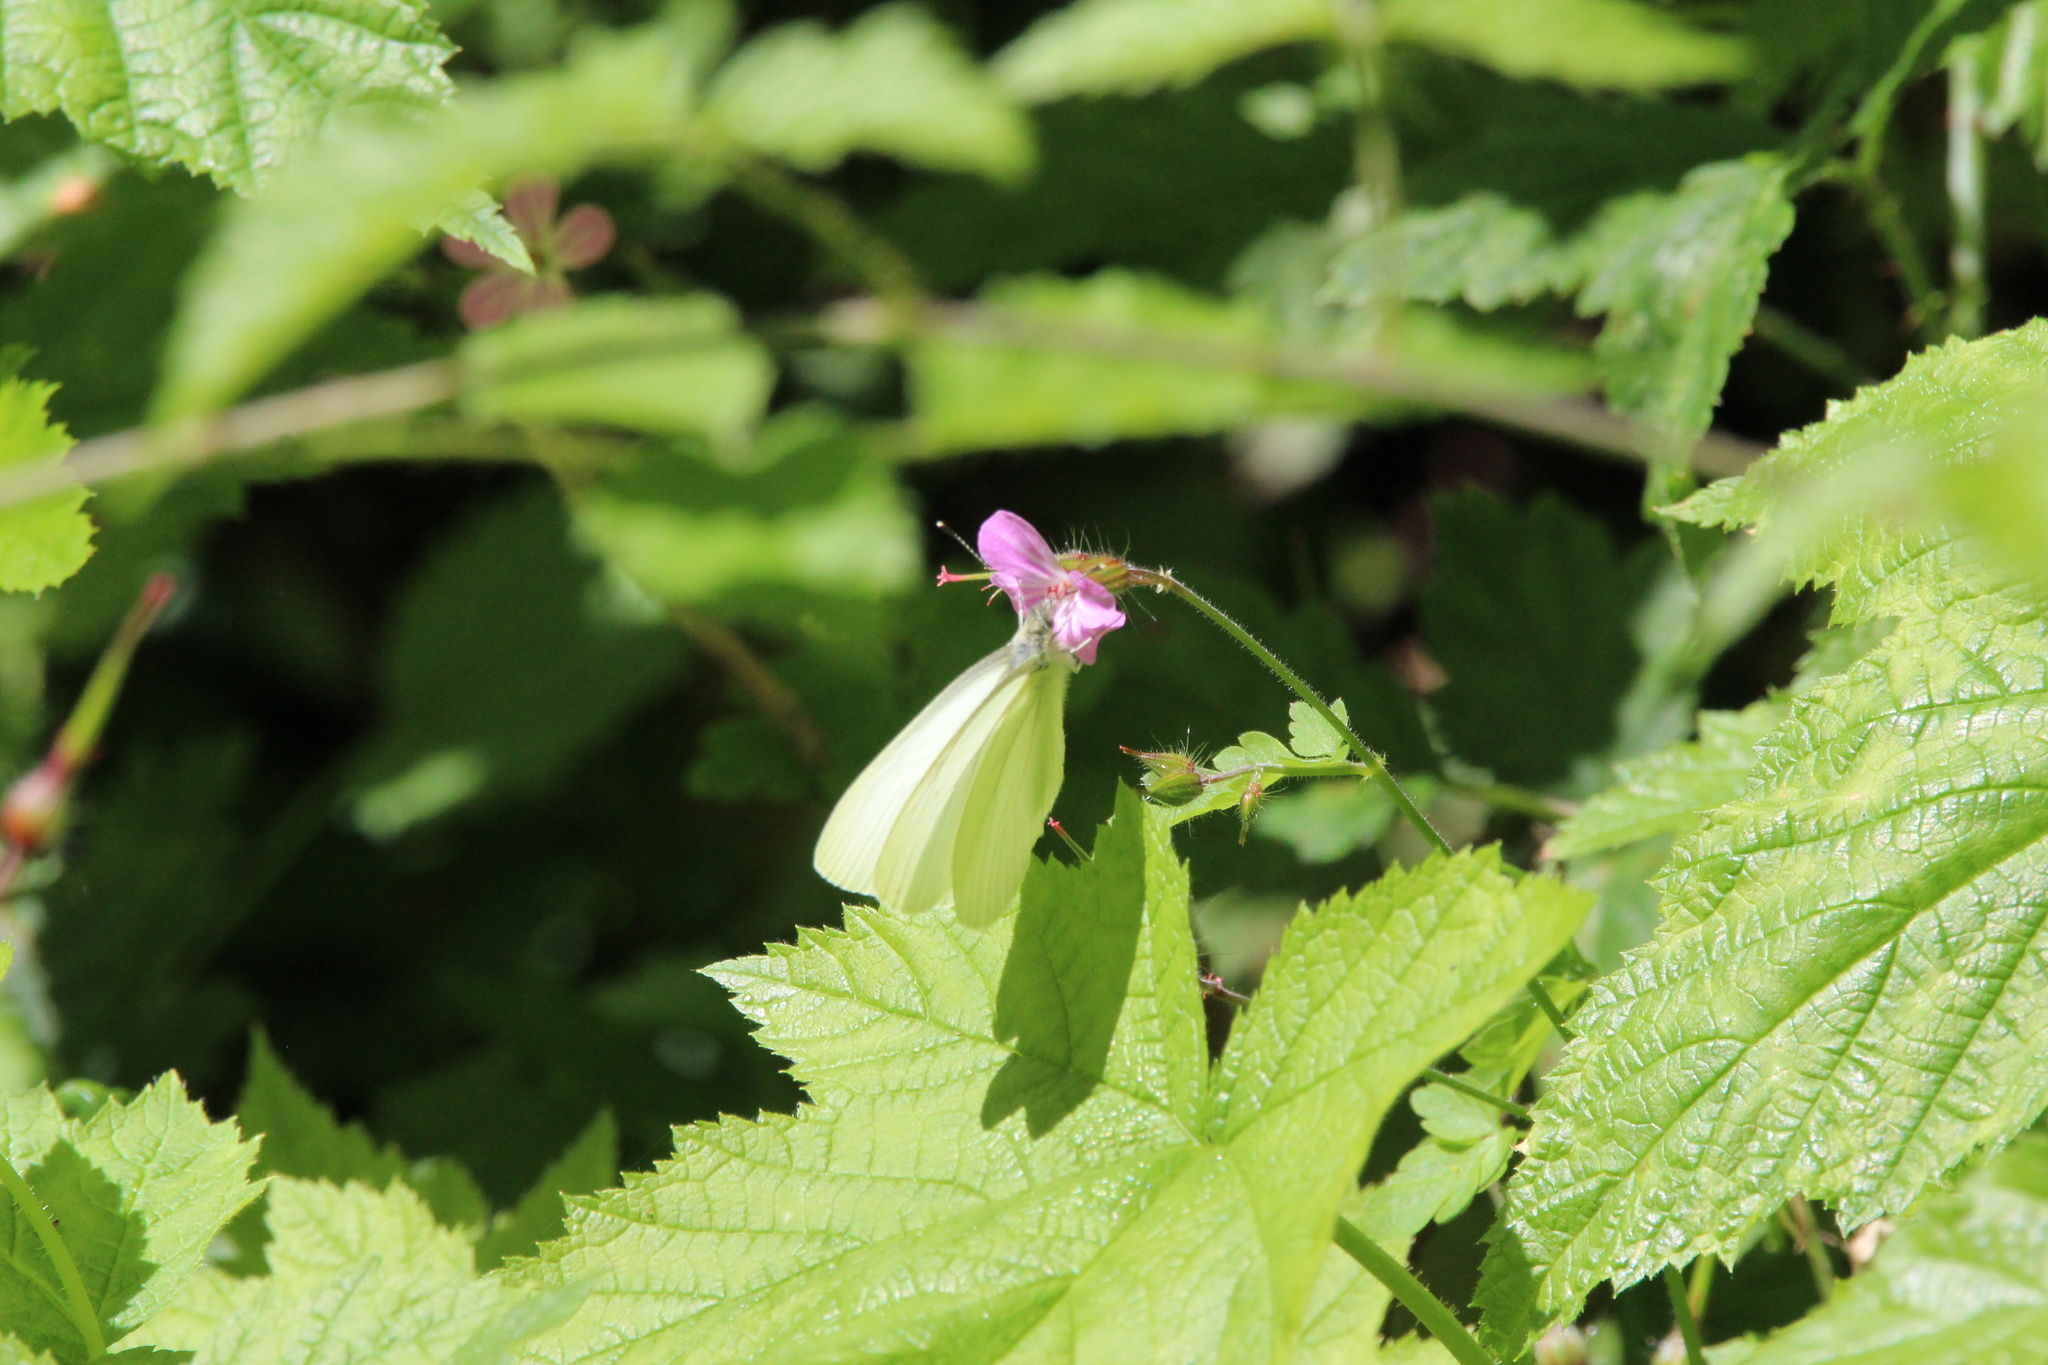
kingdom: Animalia
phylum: Arthropoda
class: Insecta
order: Lepidoptera
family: Pieridae
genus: Pieris
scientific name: Pieris marginalis
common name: Margined white
